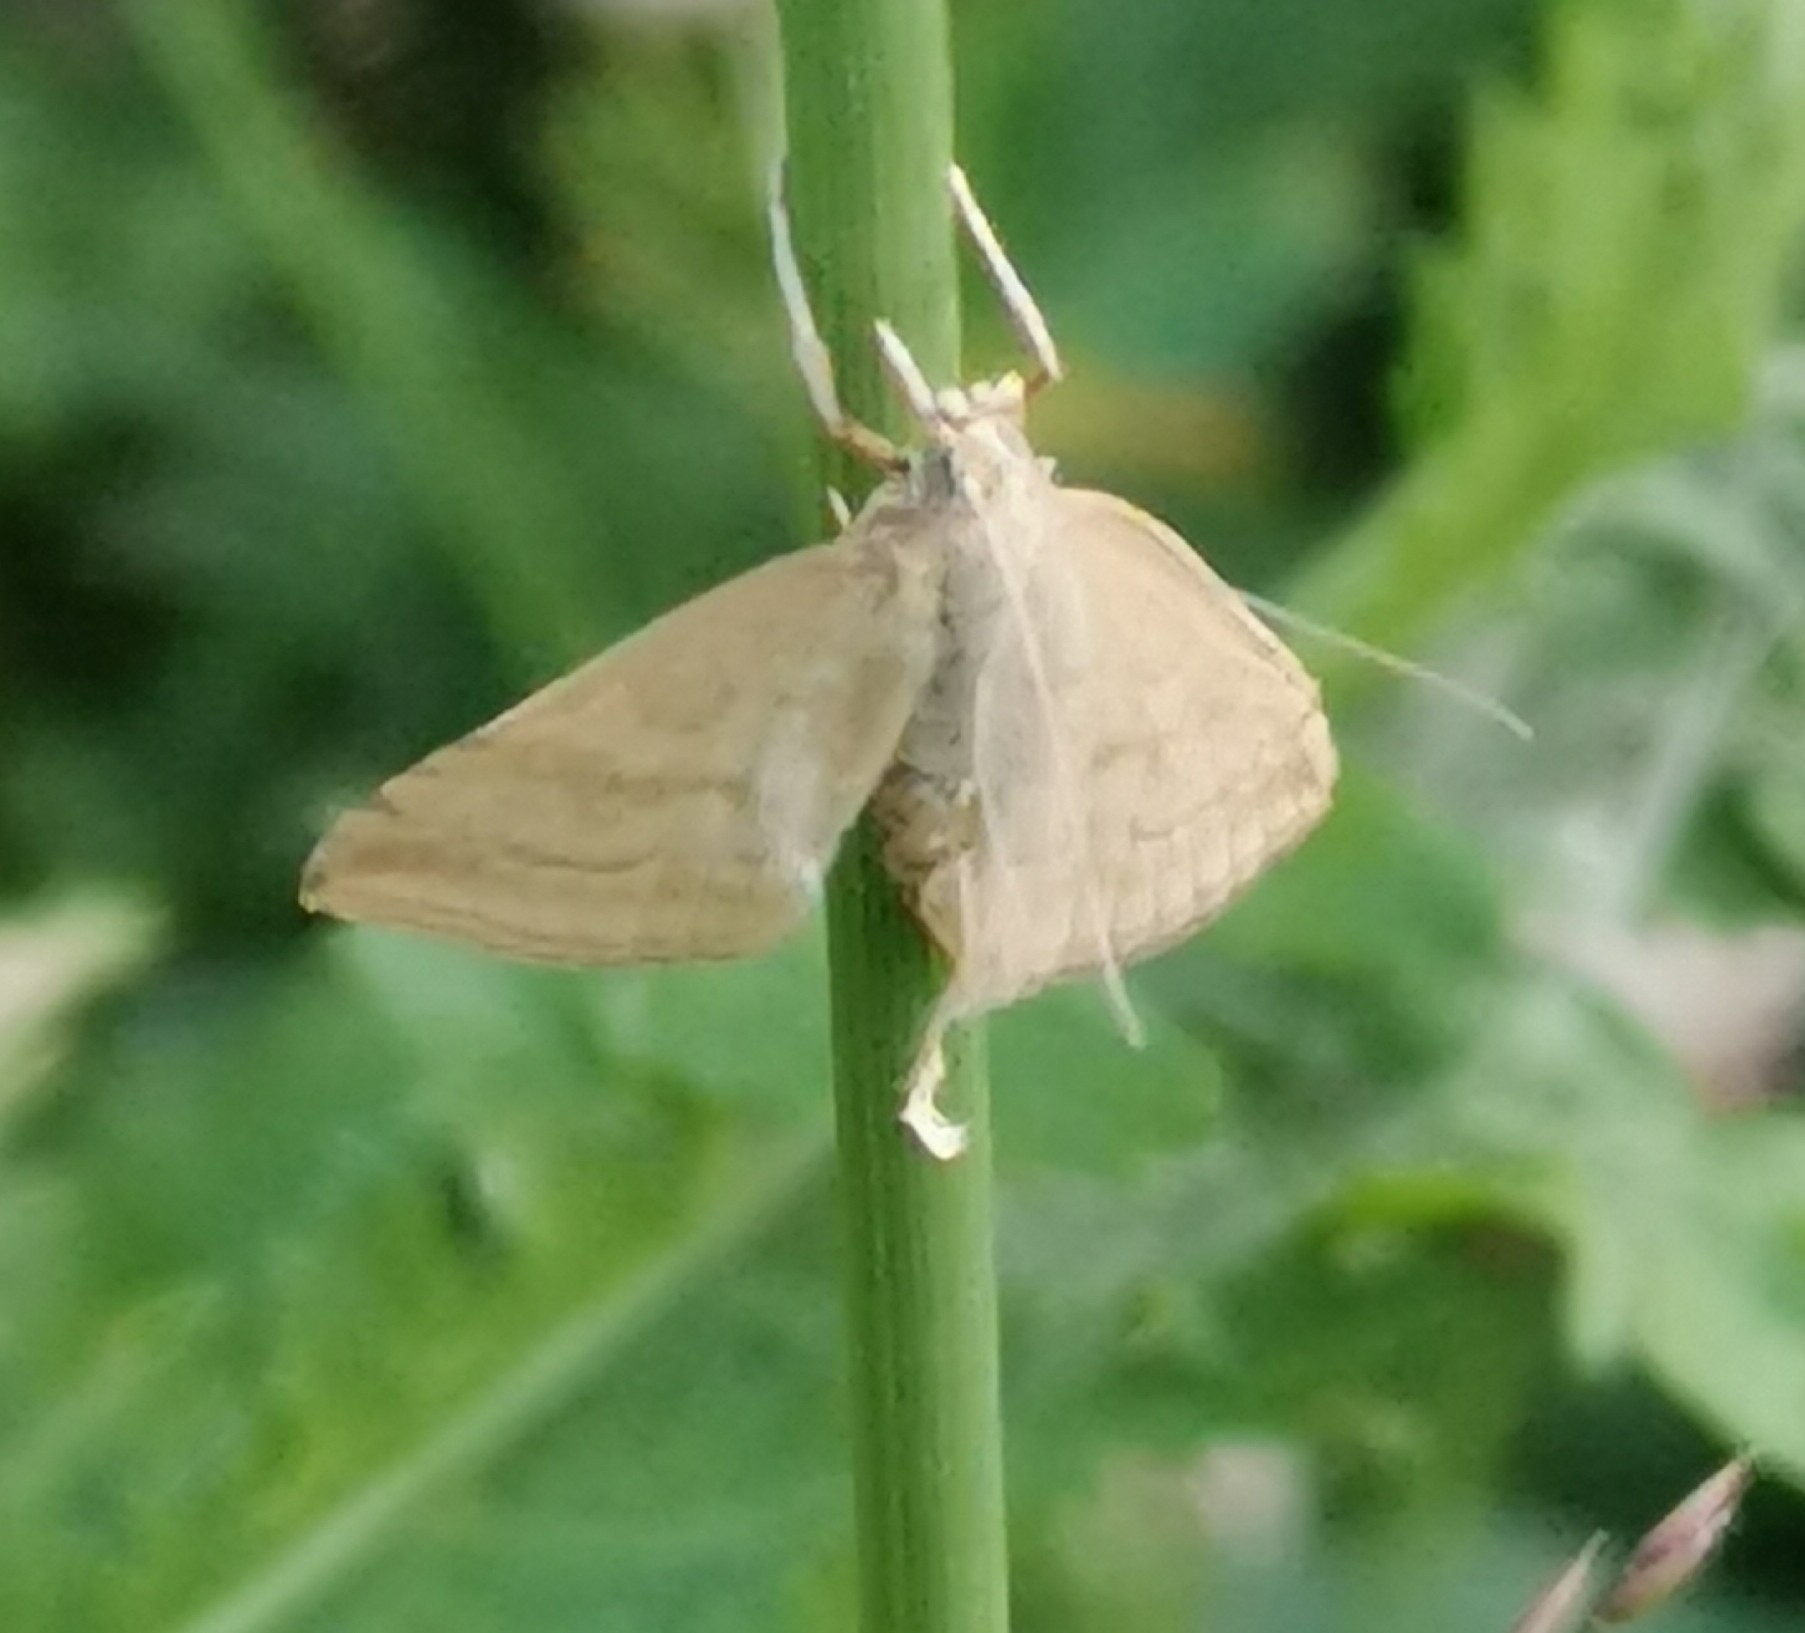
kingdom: Animalia
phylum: Arthropoda
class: Insecta
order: Lepidoptera
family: Crambidae
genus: Udea
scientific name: Udea lutealis
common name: Pale straw pearl
